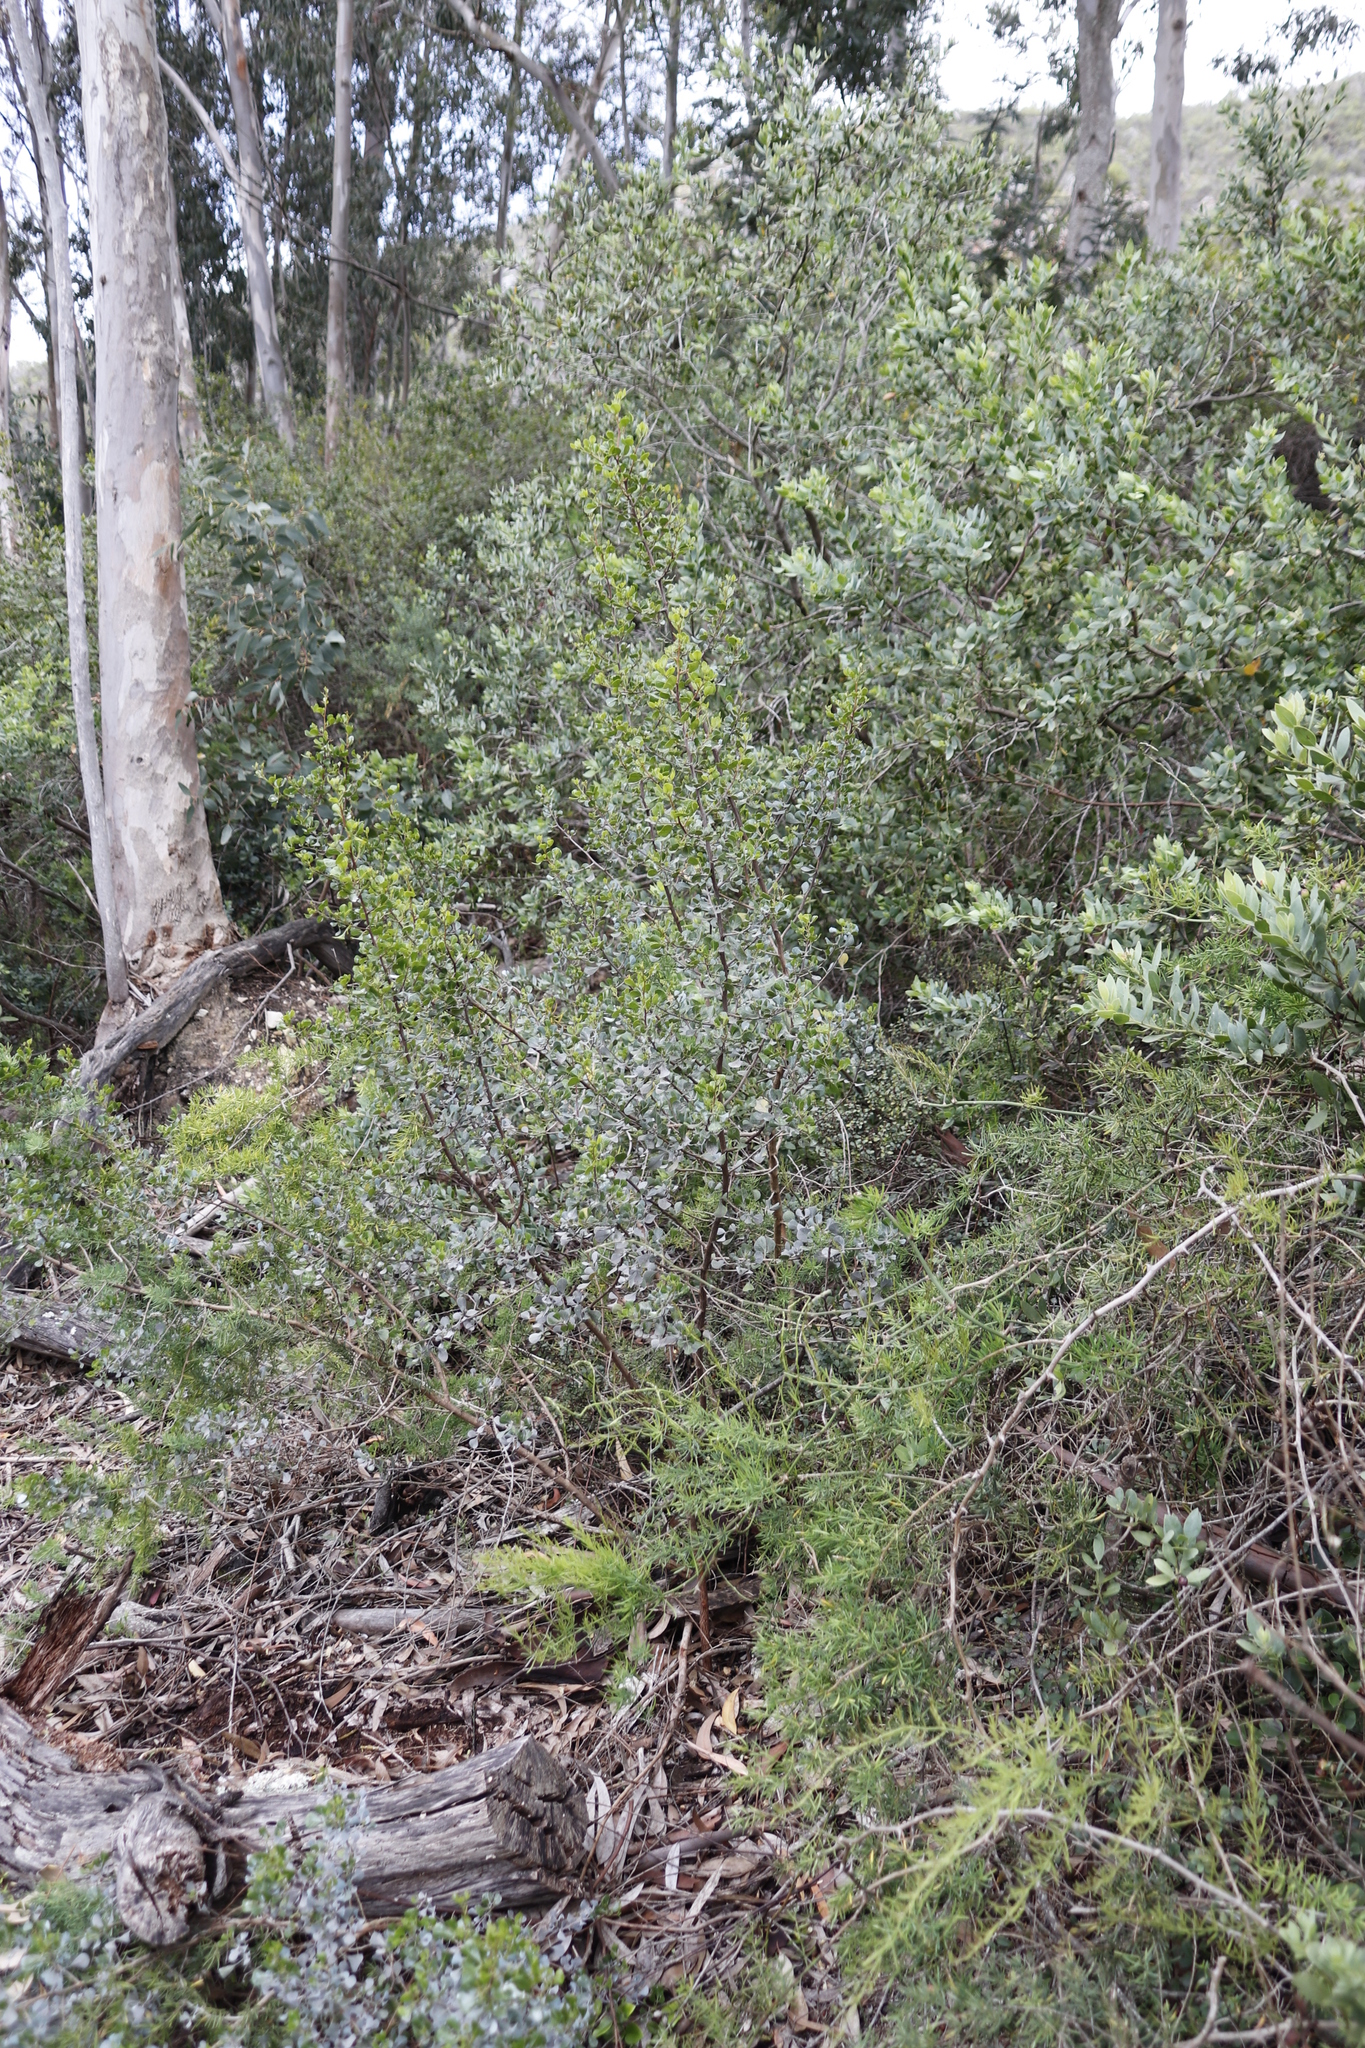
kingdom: Plantae
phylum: Tracheophyta
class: Magnoliopsida
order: Sapindales
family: Anacardiaceae
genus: Searsia
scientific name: Searsia glauca
